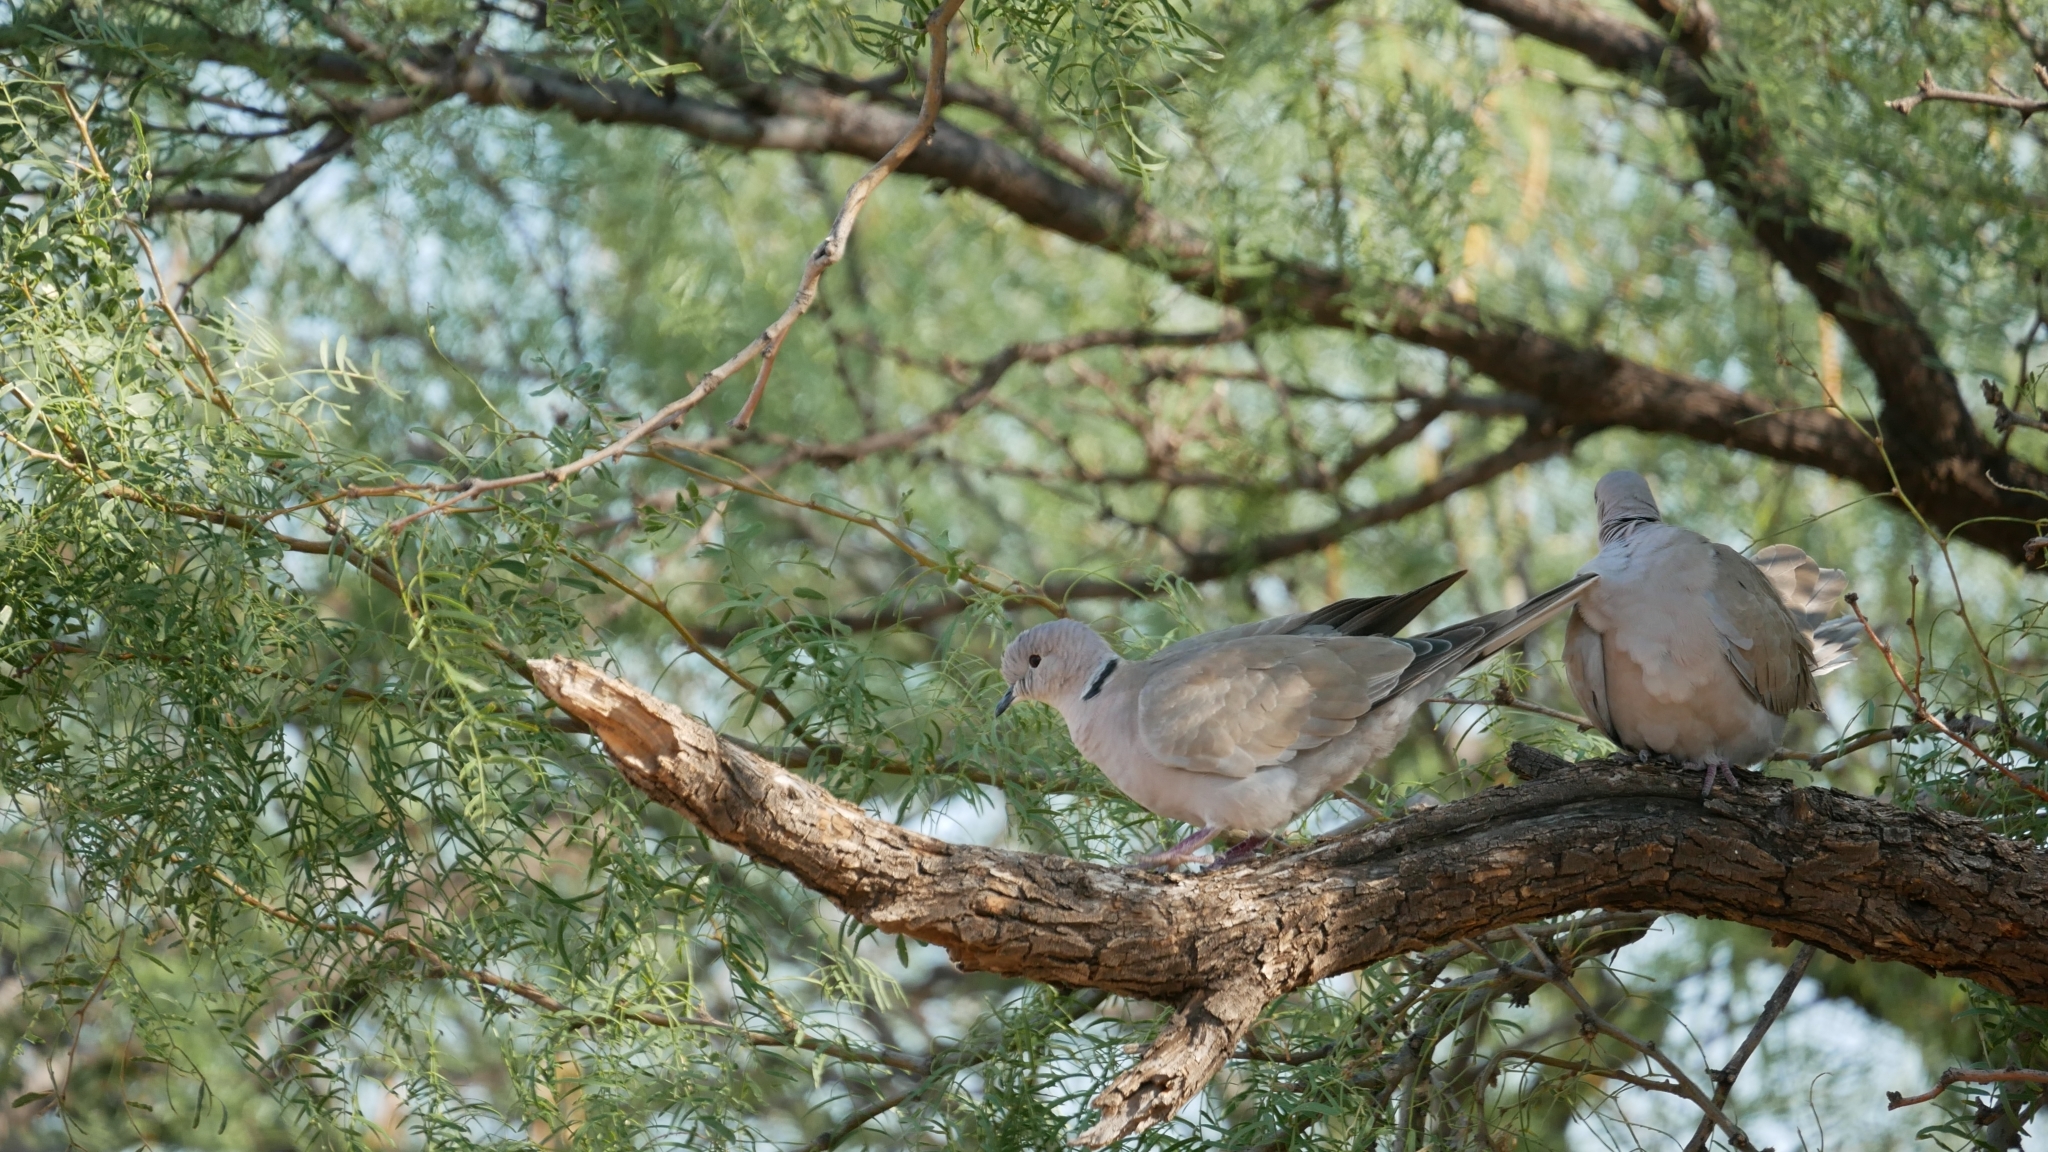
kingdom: Animalia
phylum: Chordata
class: Aves
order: Columbiformes
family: Columbidae
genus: Streptopelia
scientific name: Streptopelia decaocto
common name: Eurasian collared dove
